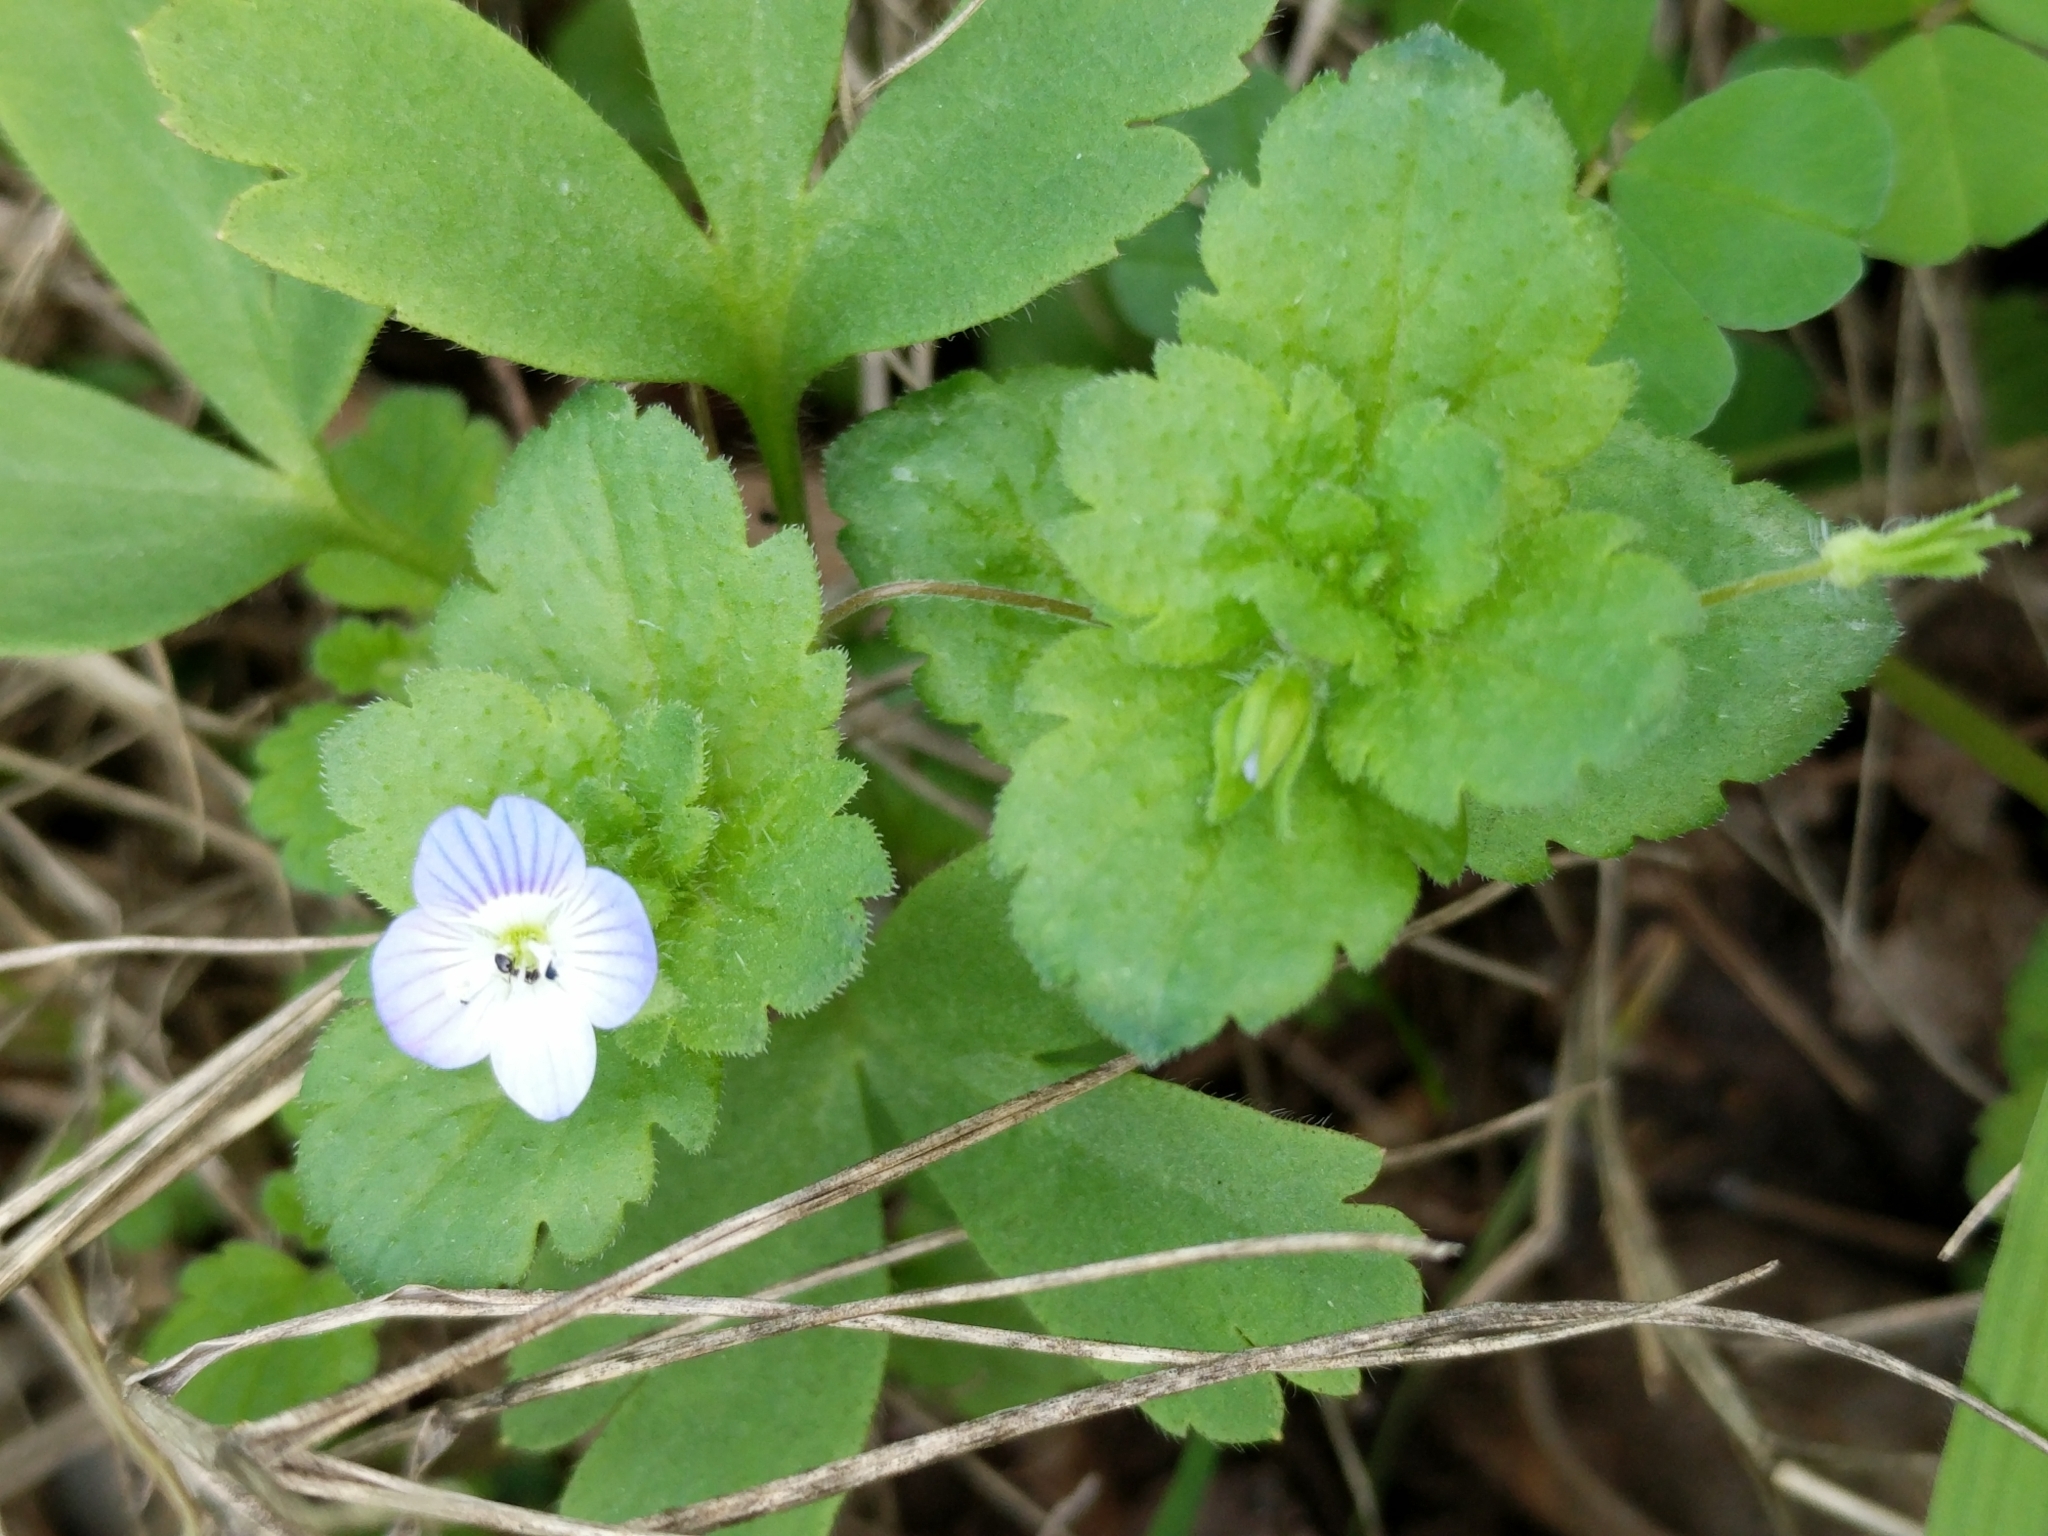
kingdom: Plantae
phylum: Tracheophyta
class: Magnoliopsida
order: Lamiales
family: Plantaginaceae
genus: Veronica
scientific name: Veronica persica
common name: Common field-speedwell
